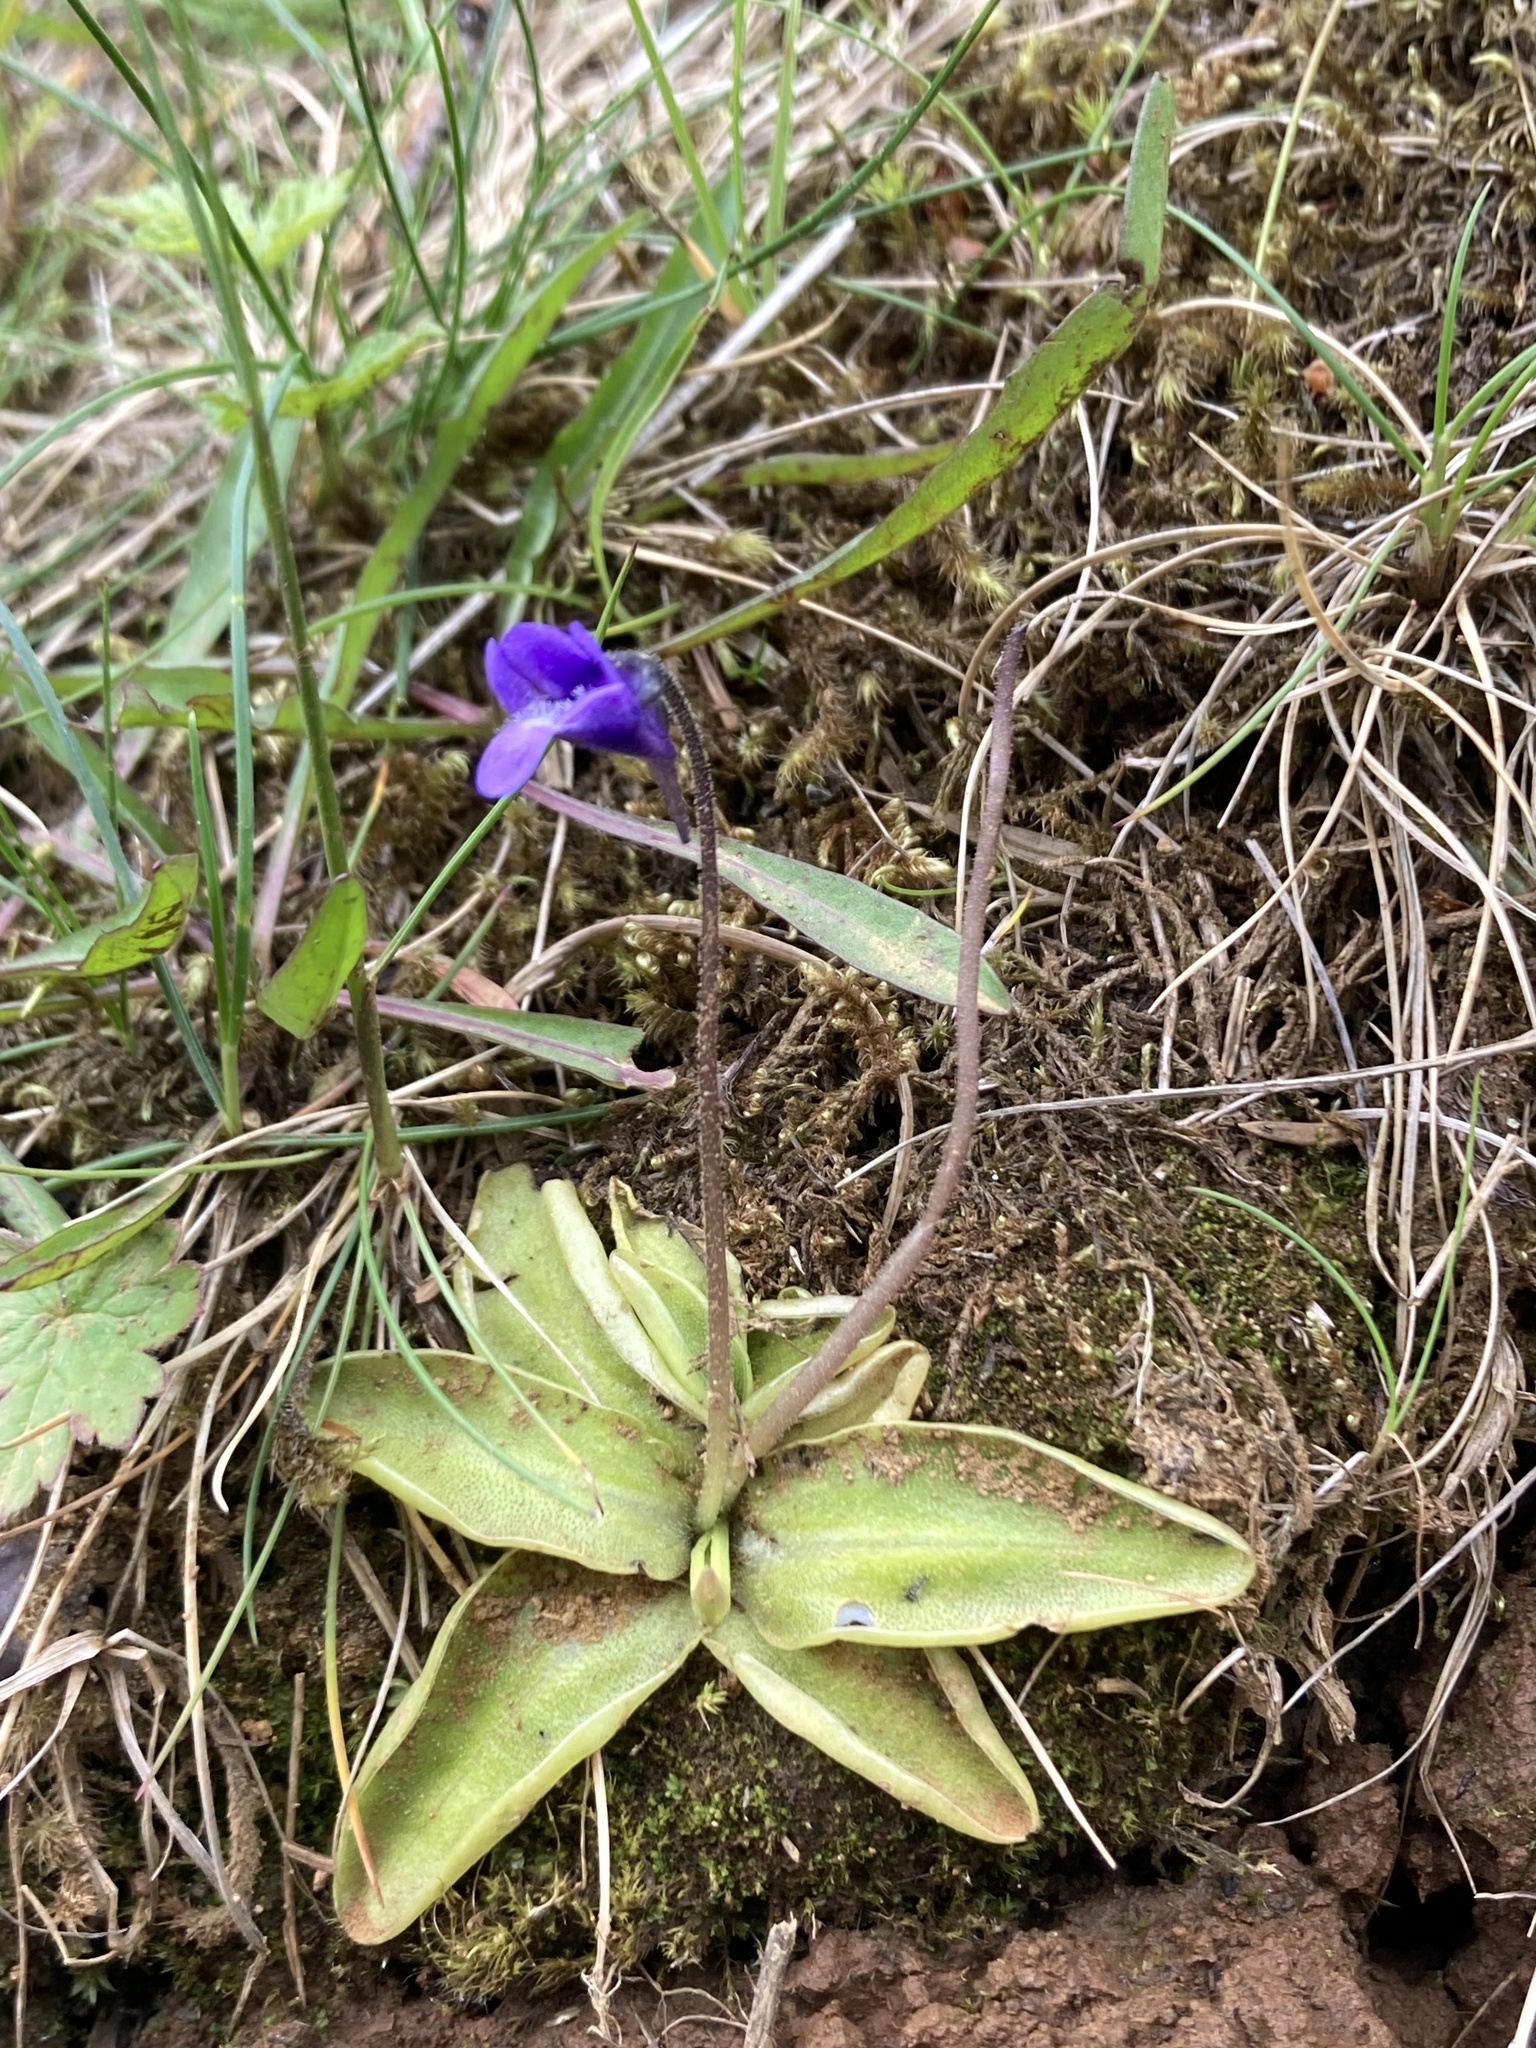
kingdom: Plantae
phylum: Tracheophyta
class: Magnoliopsida
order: Lamiales
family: Lentibulariaceae
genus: Pinguicula
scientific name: Pinguicula vulgaris
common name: Common butterwort
